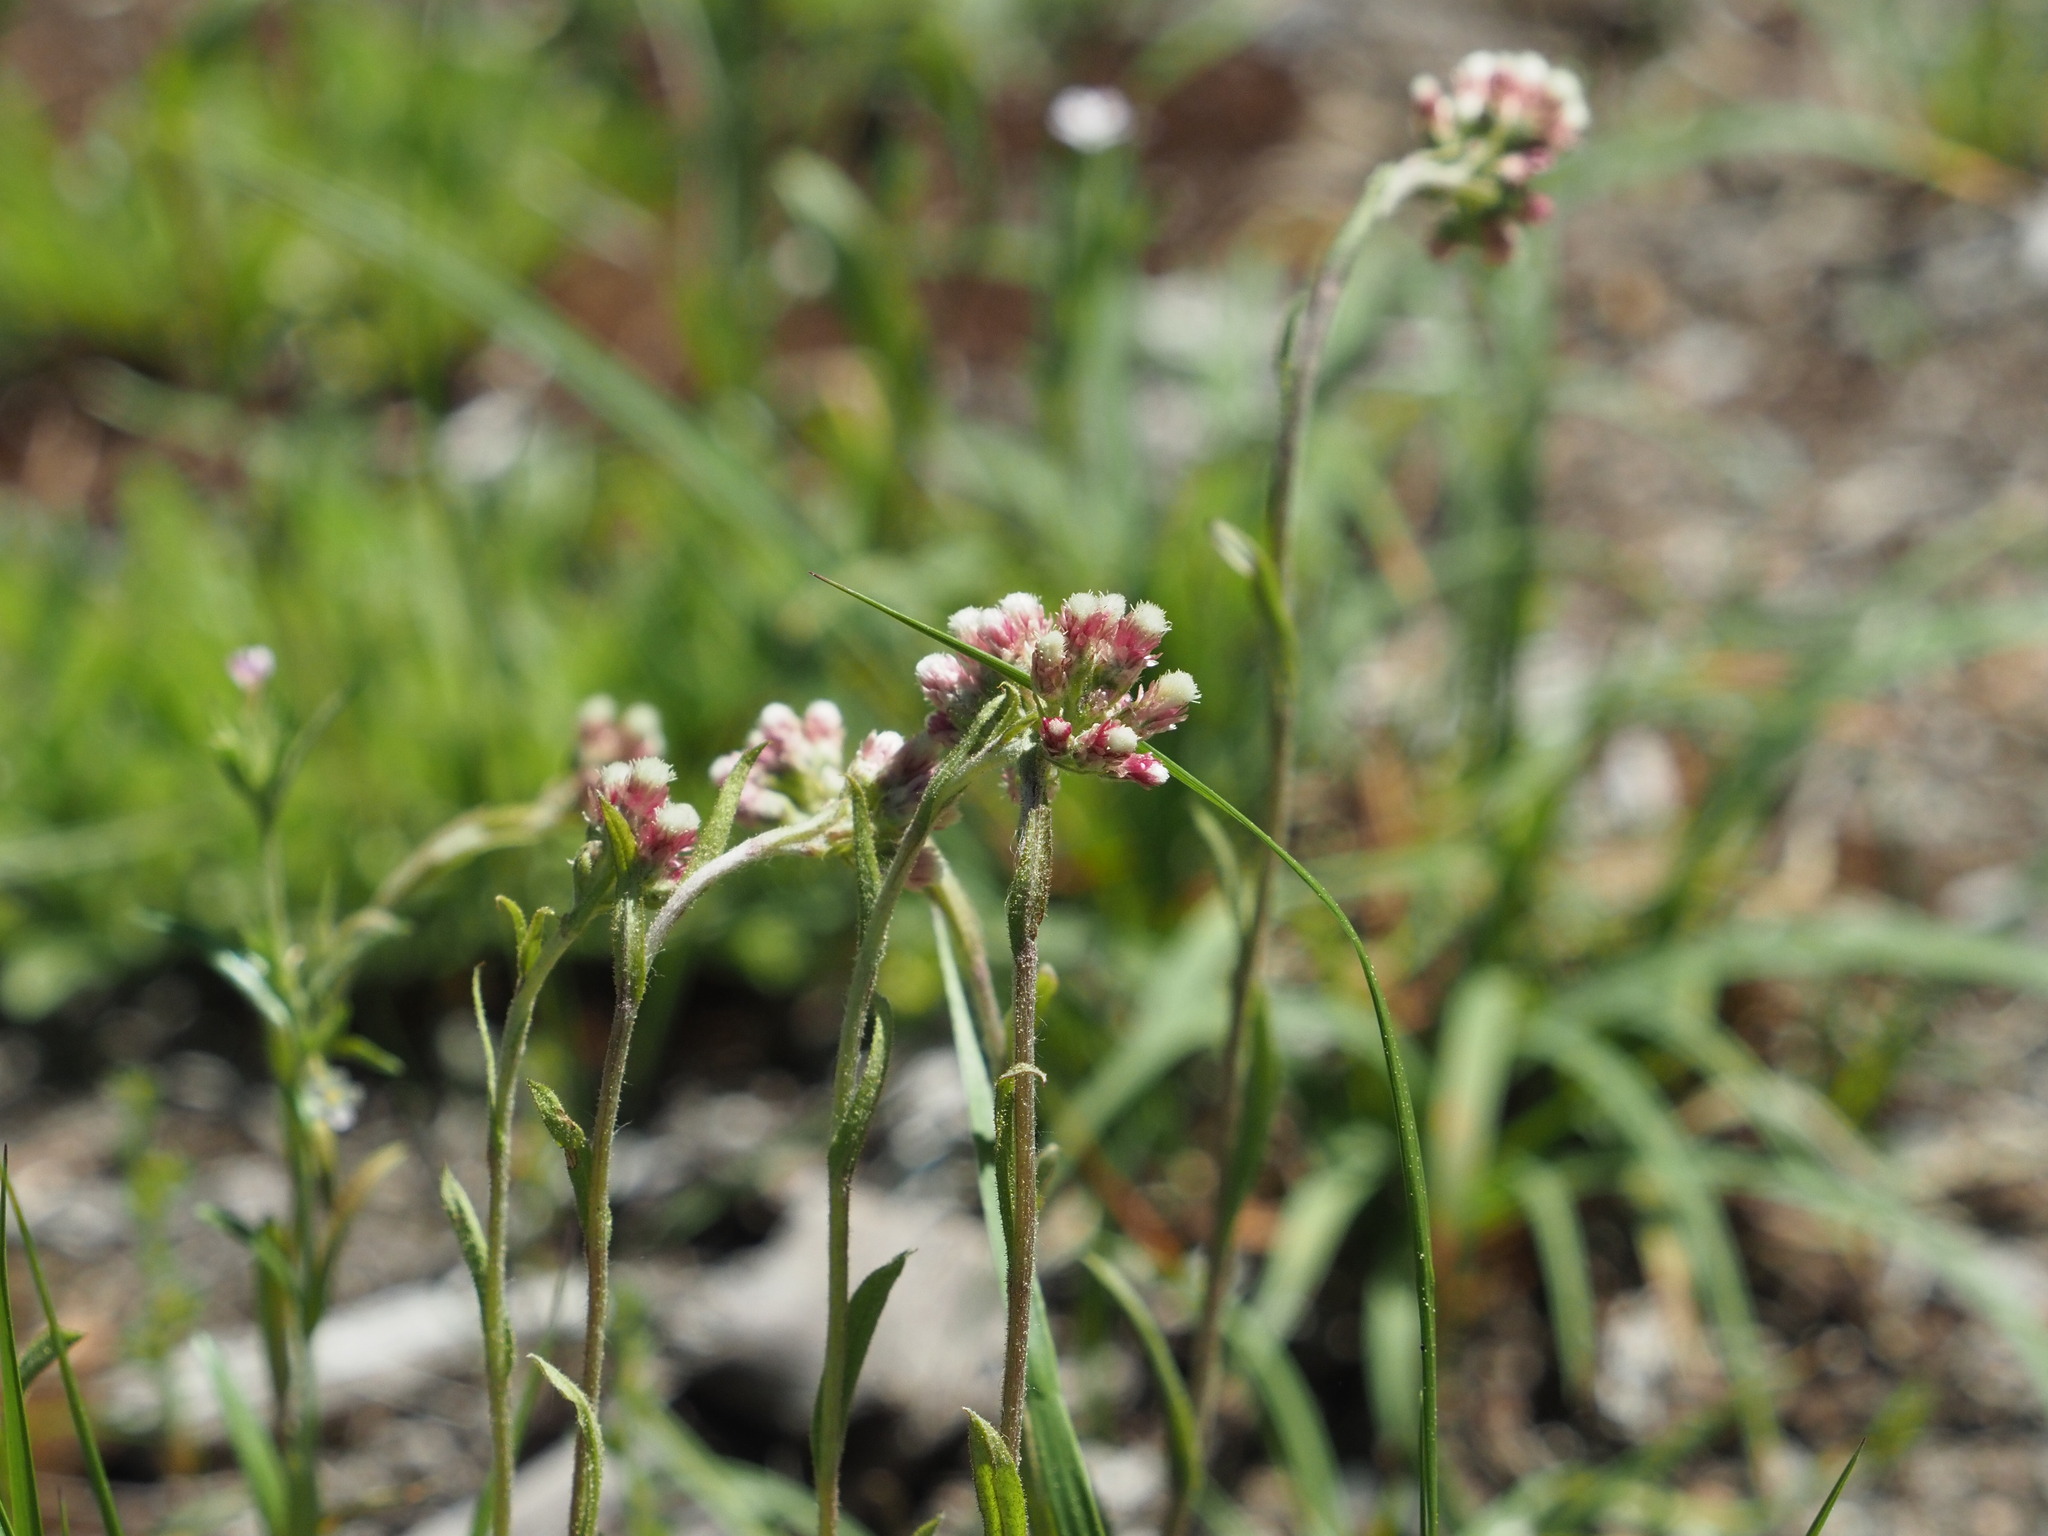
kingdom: Plantae
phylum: Tracheophyta
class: Magnoliopsida
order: Asterales
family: Asteraceae
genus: Antennaria
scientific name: Antennaria rosea
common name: Rosy pussytoes
